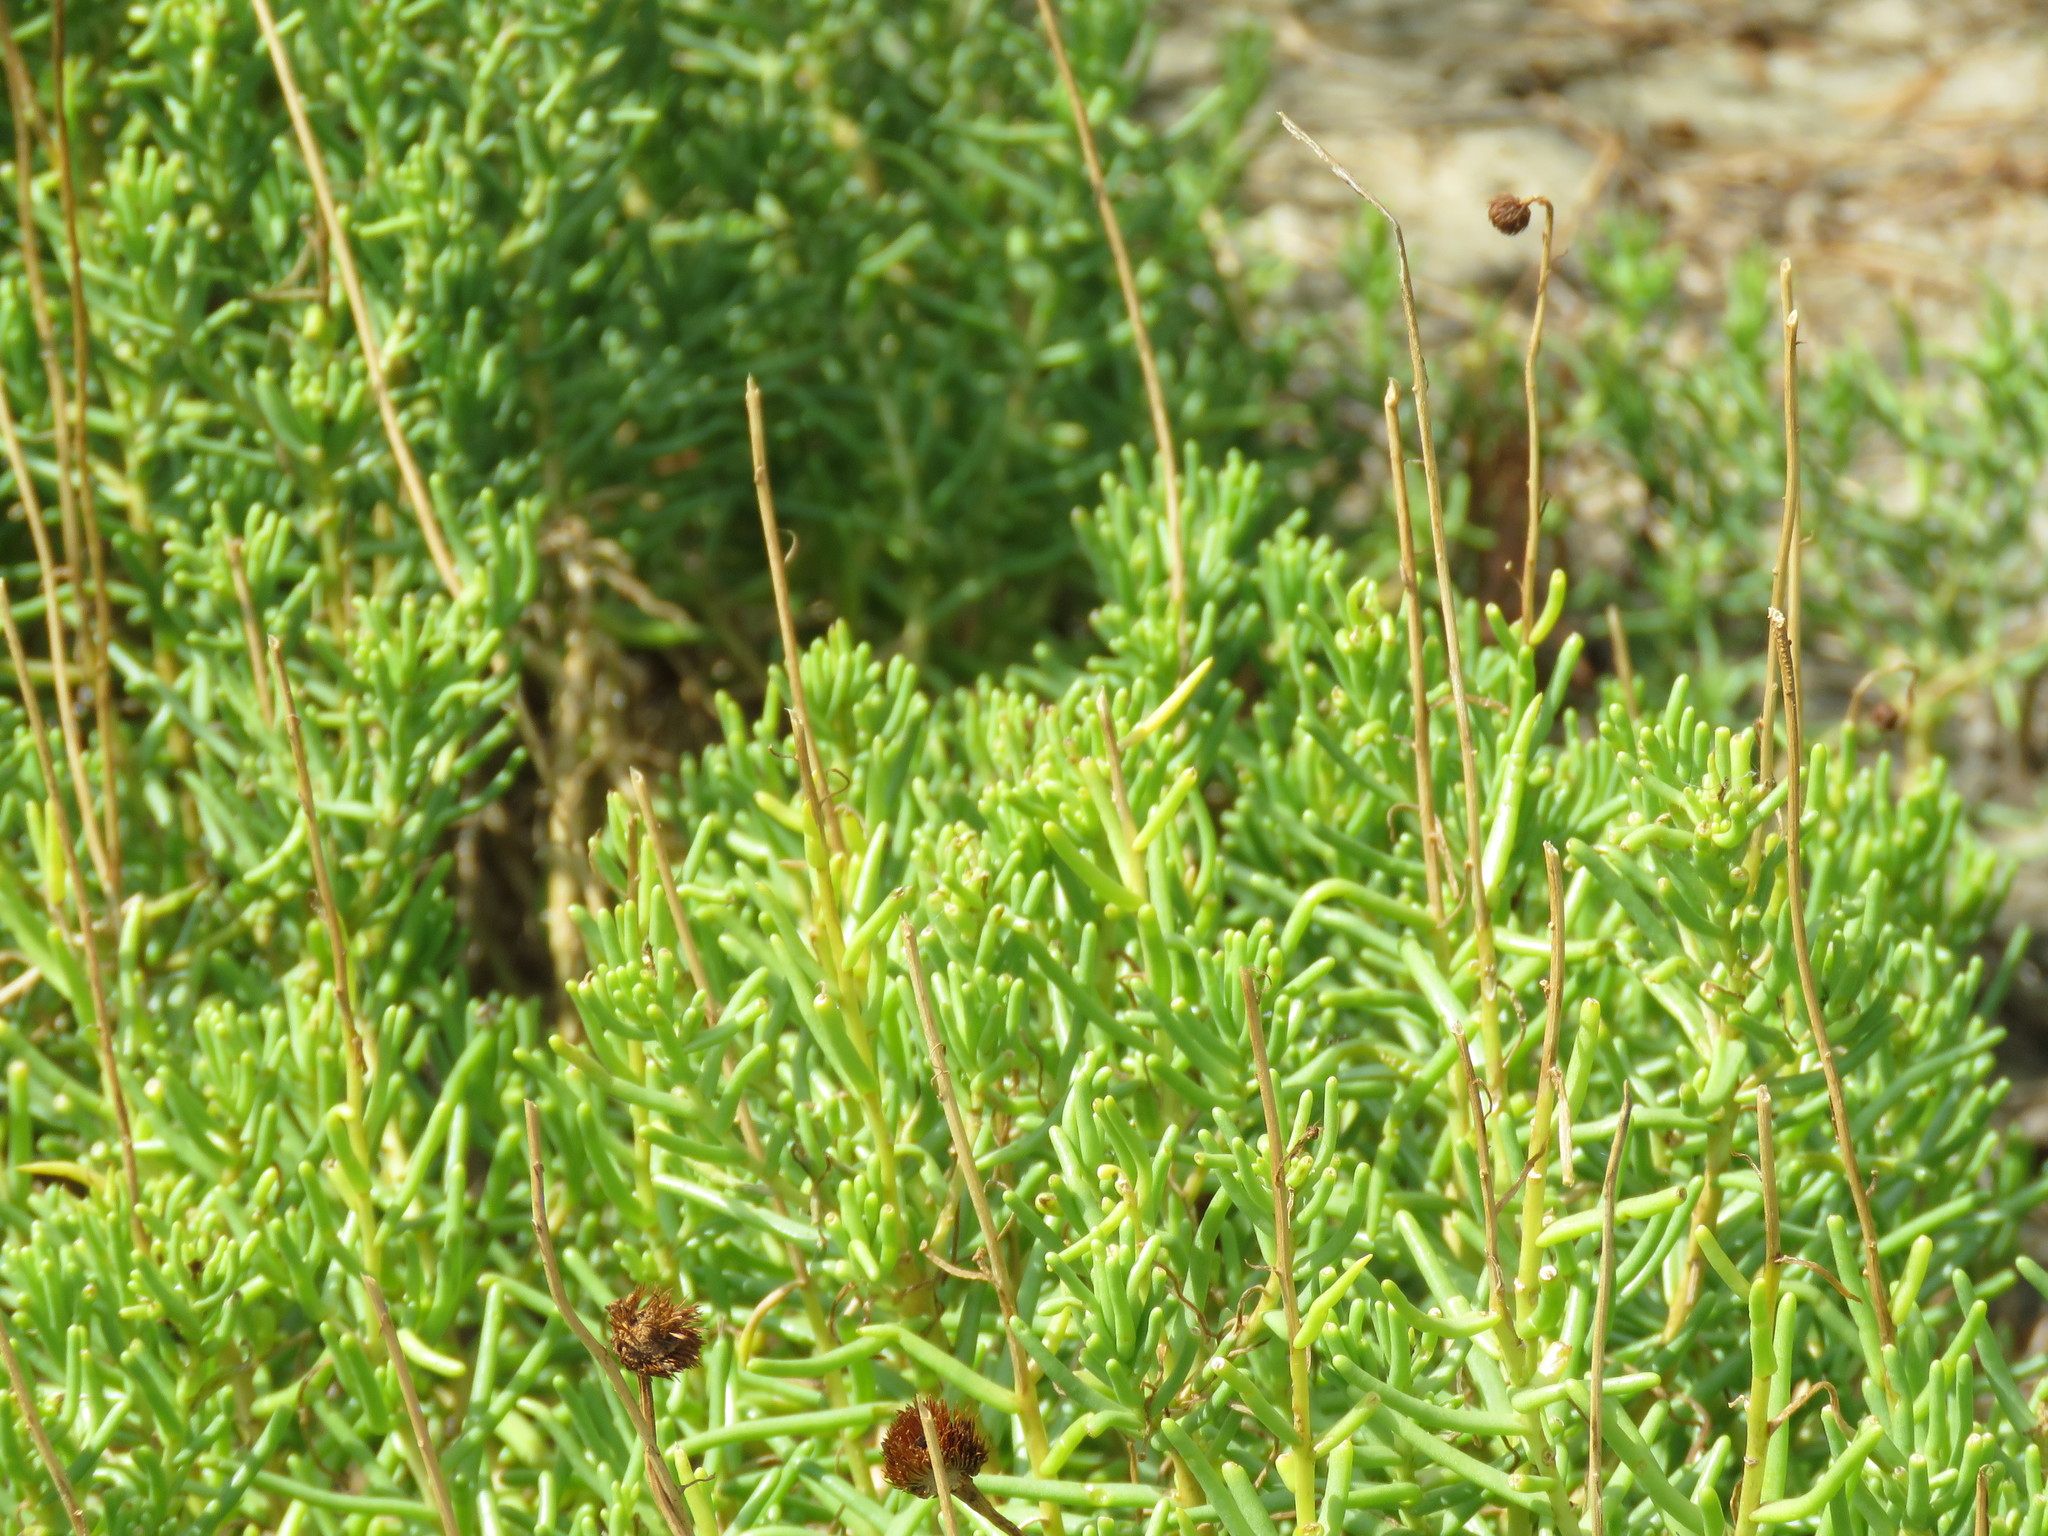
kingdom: Plantae
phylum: Tracheophyta
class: Magnoliopsida
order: Asterales
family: Asteraceae
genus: Varilla
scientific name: Varilla texana
